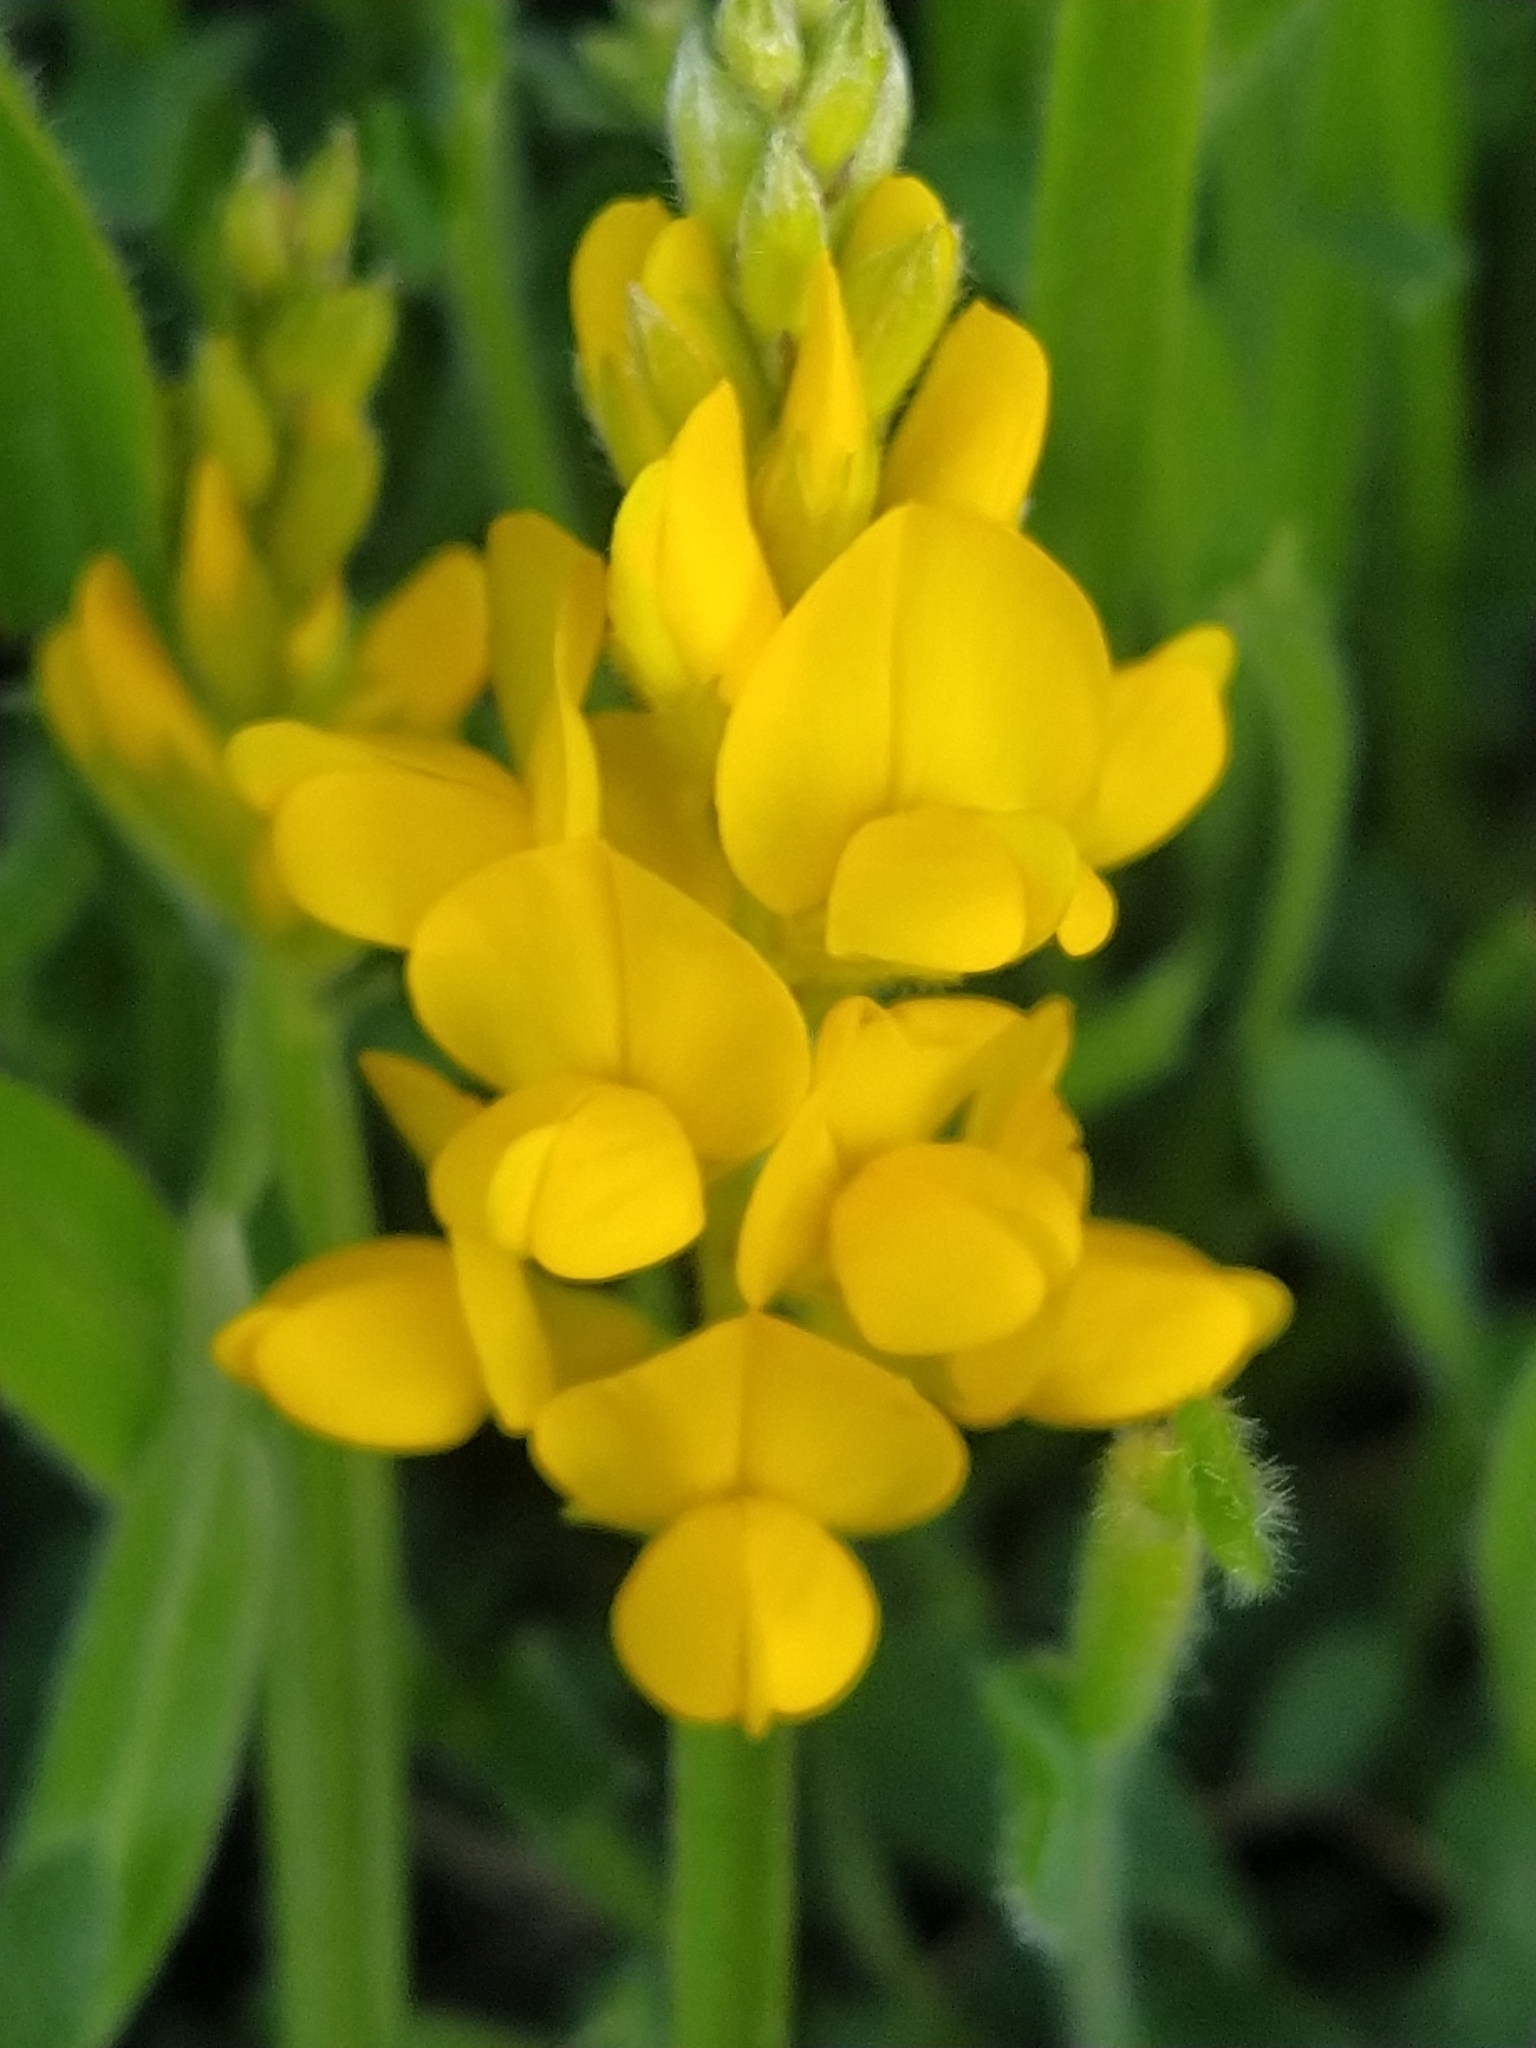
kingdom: Plantae
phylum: Tracheophyta
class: Magnoliopsida
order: Fabales
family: Fabaceae
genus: Genista
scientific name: Genista sagittalis
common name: Winged greenweed
